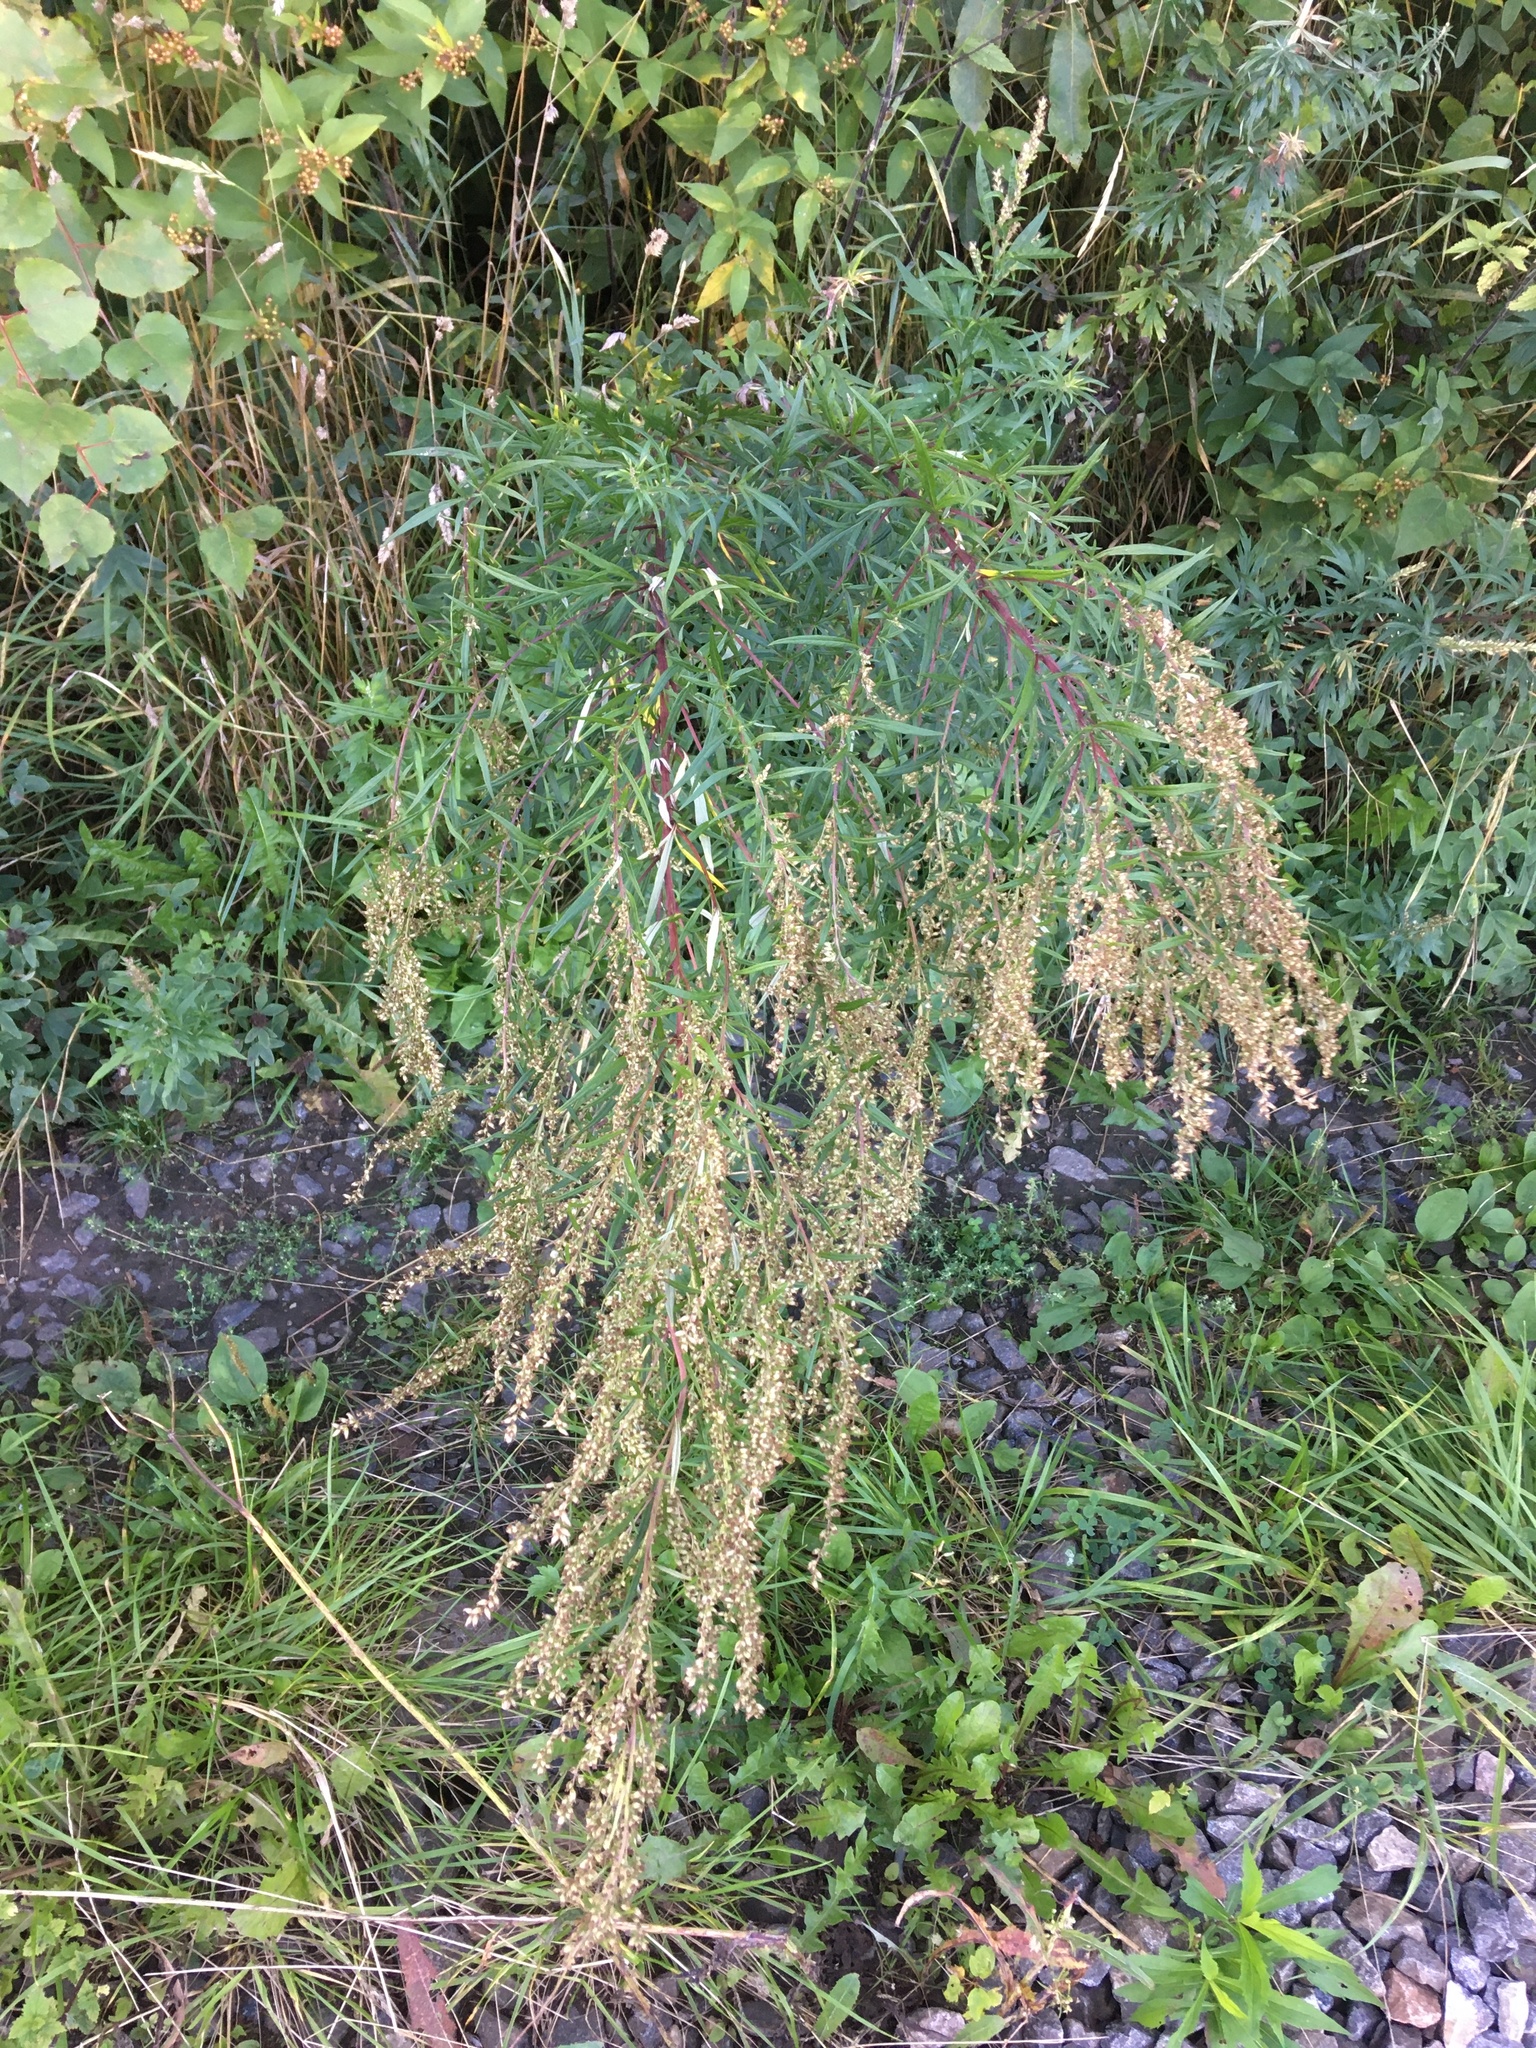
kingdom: Plantae
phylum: Tracheophyta
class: Magnoliopsida
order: Asterales
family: Asteraceae
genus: Artemisia
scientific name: Artemisia vulgaris
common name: Mugwort
